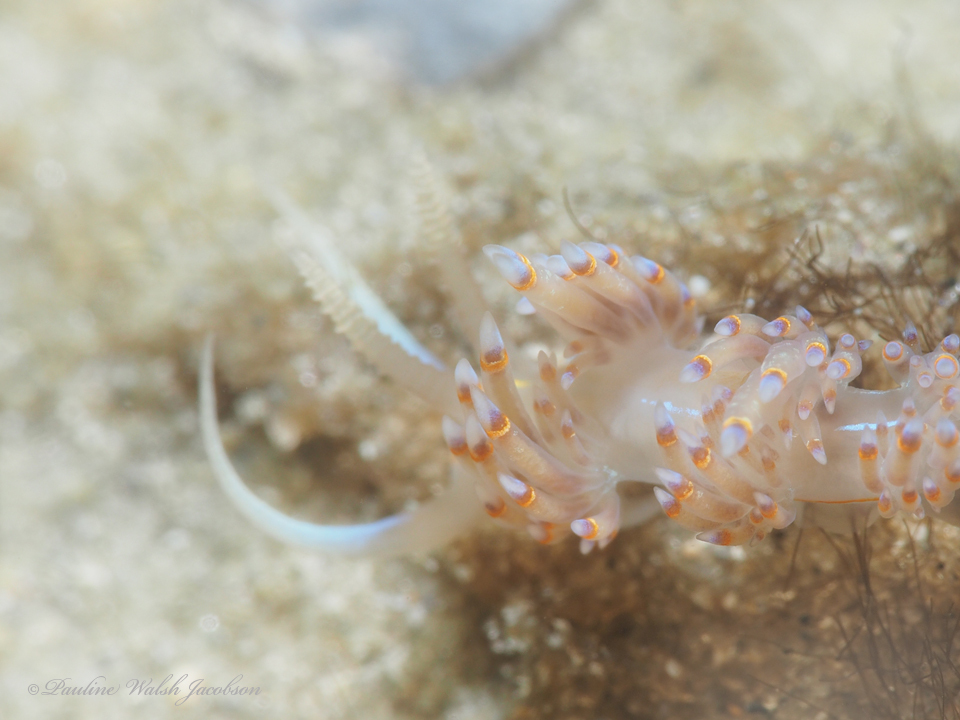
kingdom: Animalia
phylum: Mollusca
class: Gastropoda
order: Nudibranchia
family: Myrrhinidae
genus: Dondice
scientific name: Dondice jupiteriensis
